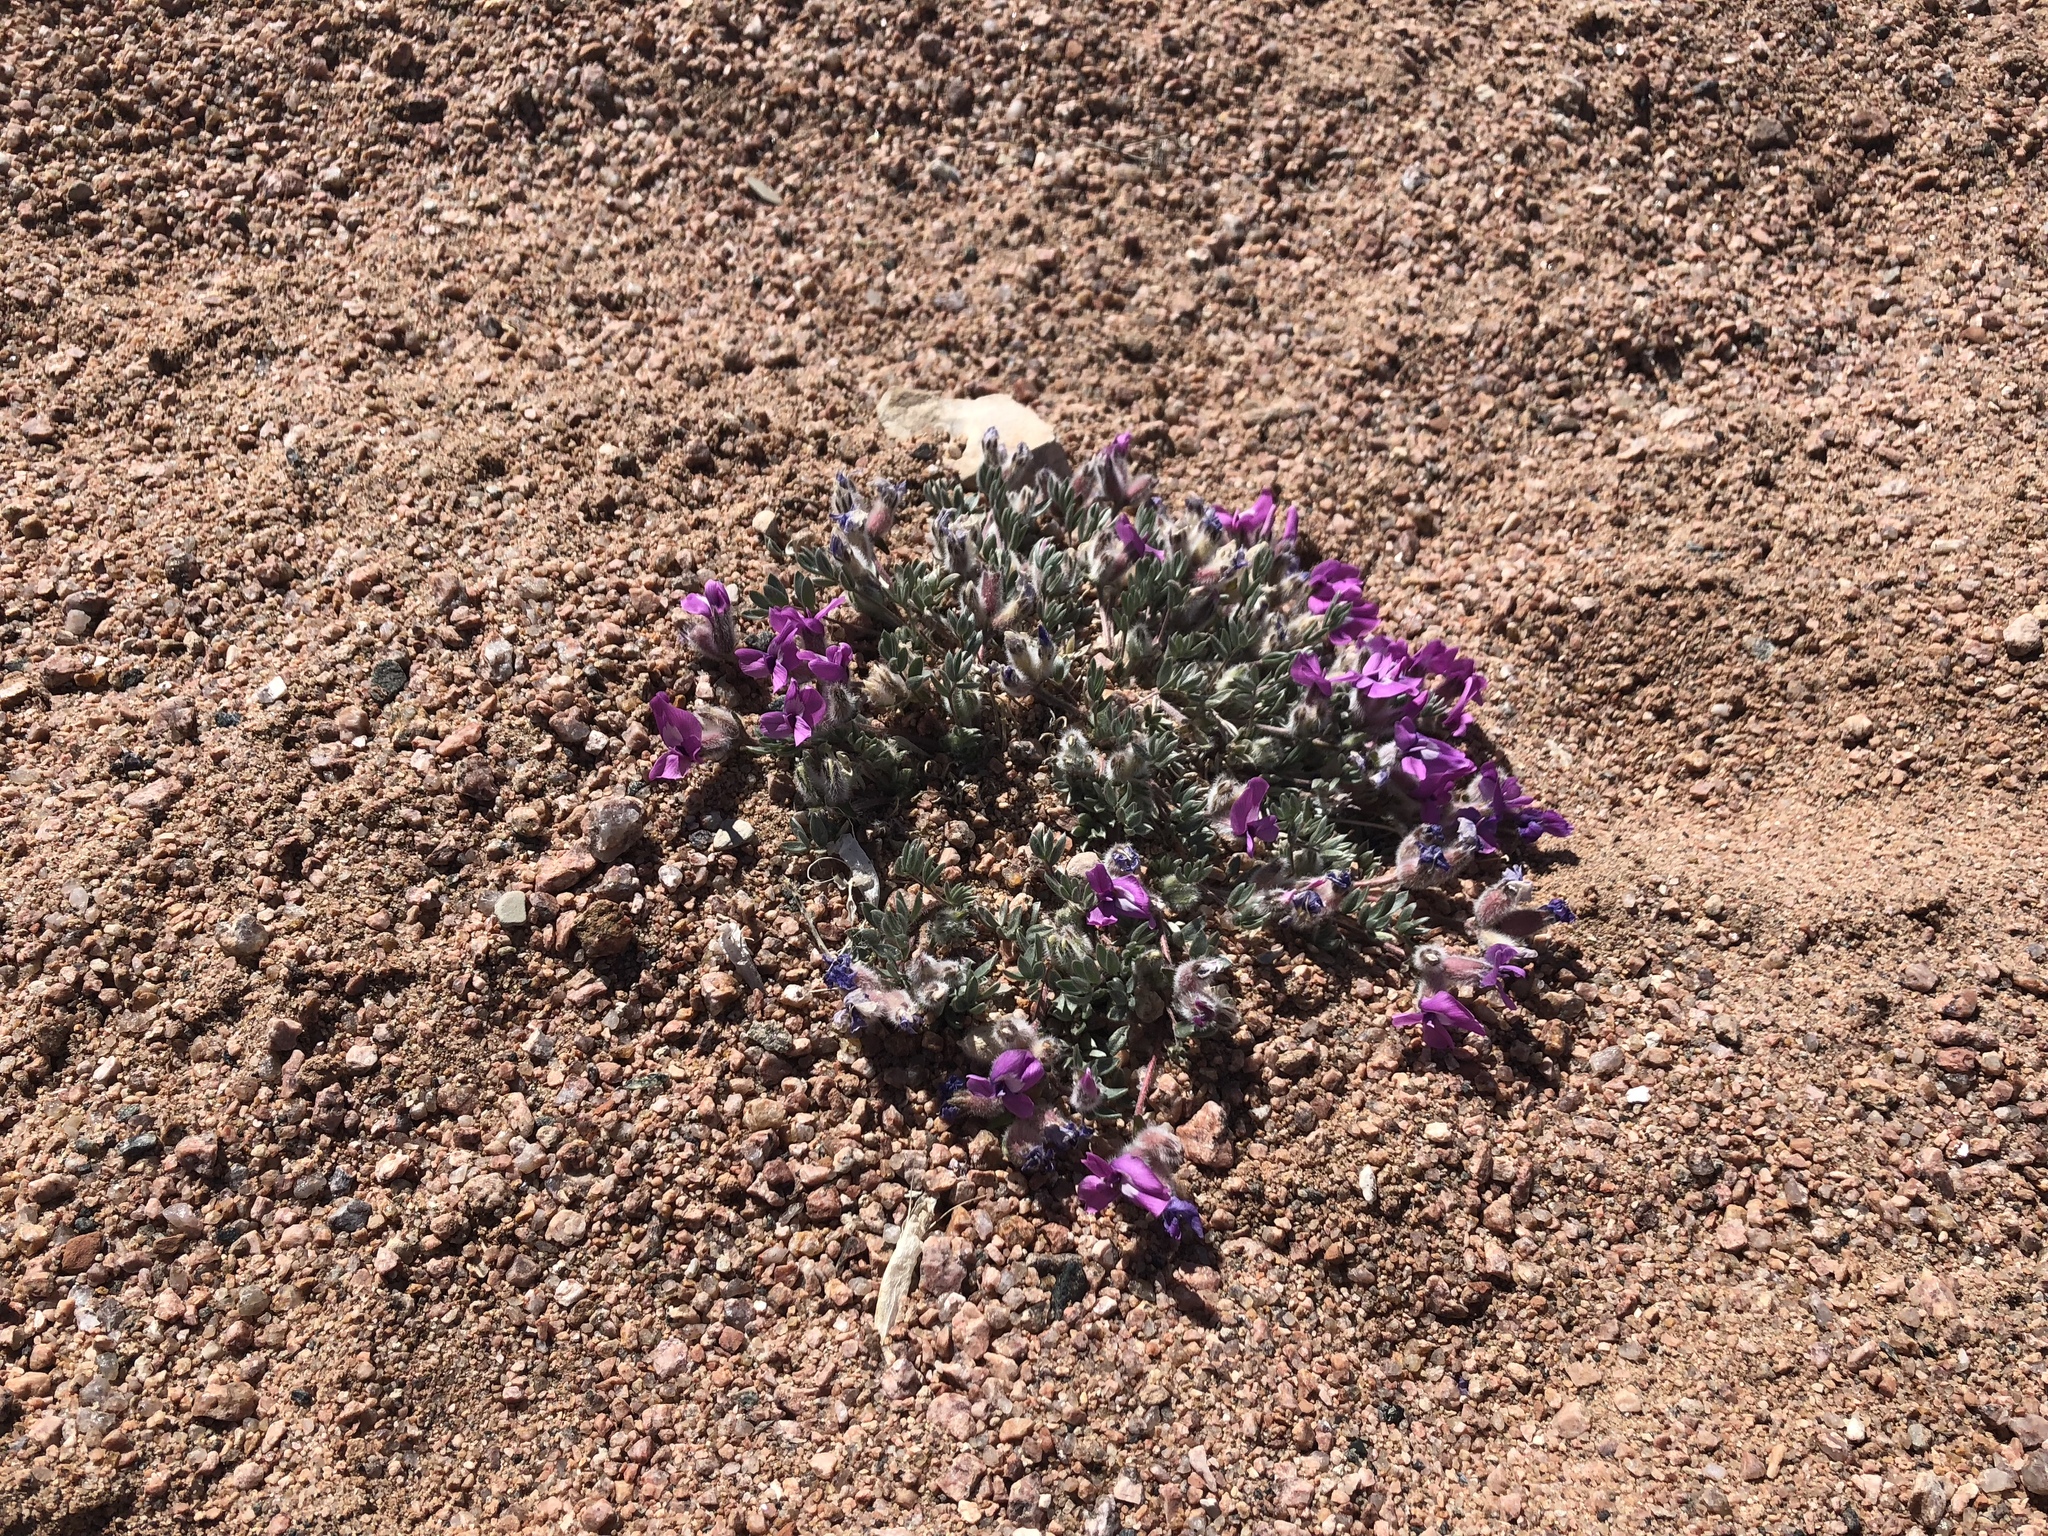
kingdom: Plantae
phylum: Tracheophyta
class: Magnoliopsida
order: Fabales
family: Fabaceae
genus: Oxytropis
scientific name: Oxytropis multiceps
